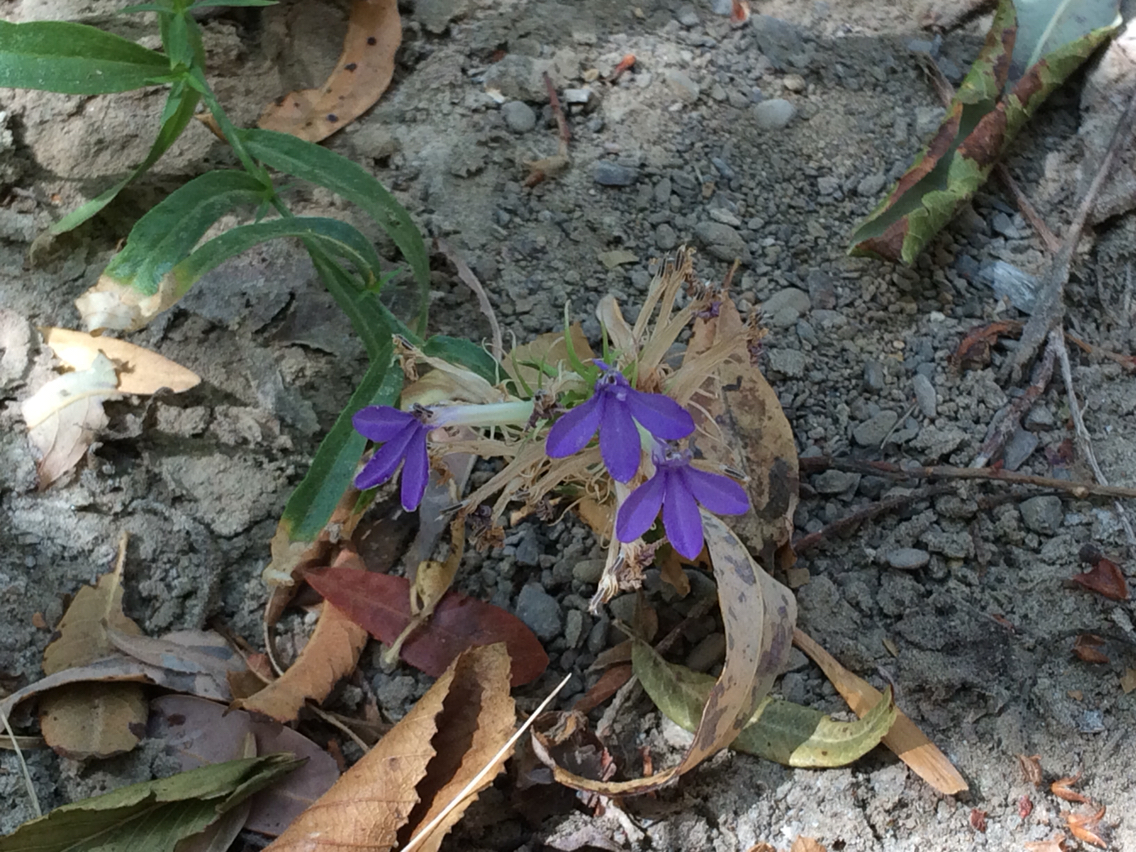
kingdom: Plantae
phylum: Tracheophyta
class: Magnoliopsida
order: Asterales
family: Campanulaceae
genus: Palmerella
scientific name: Palmerella debilis
